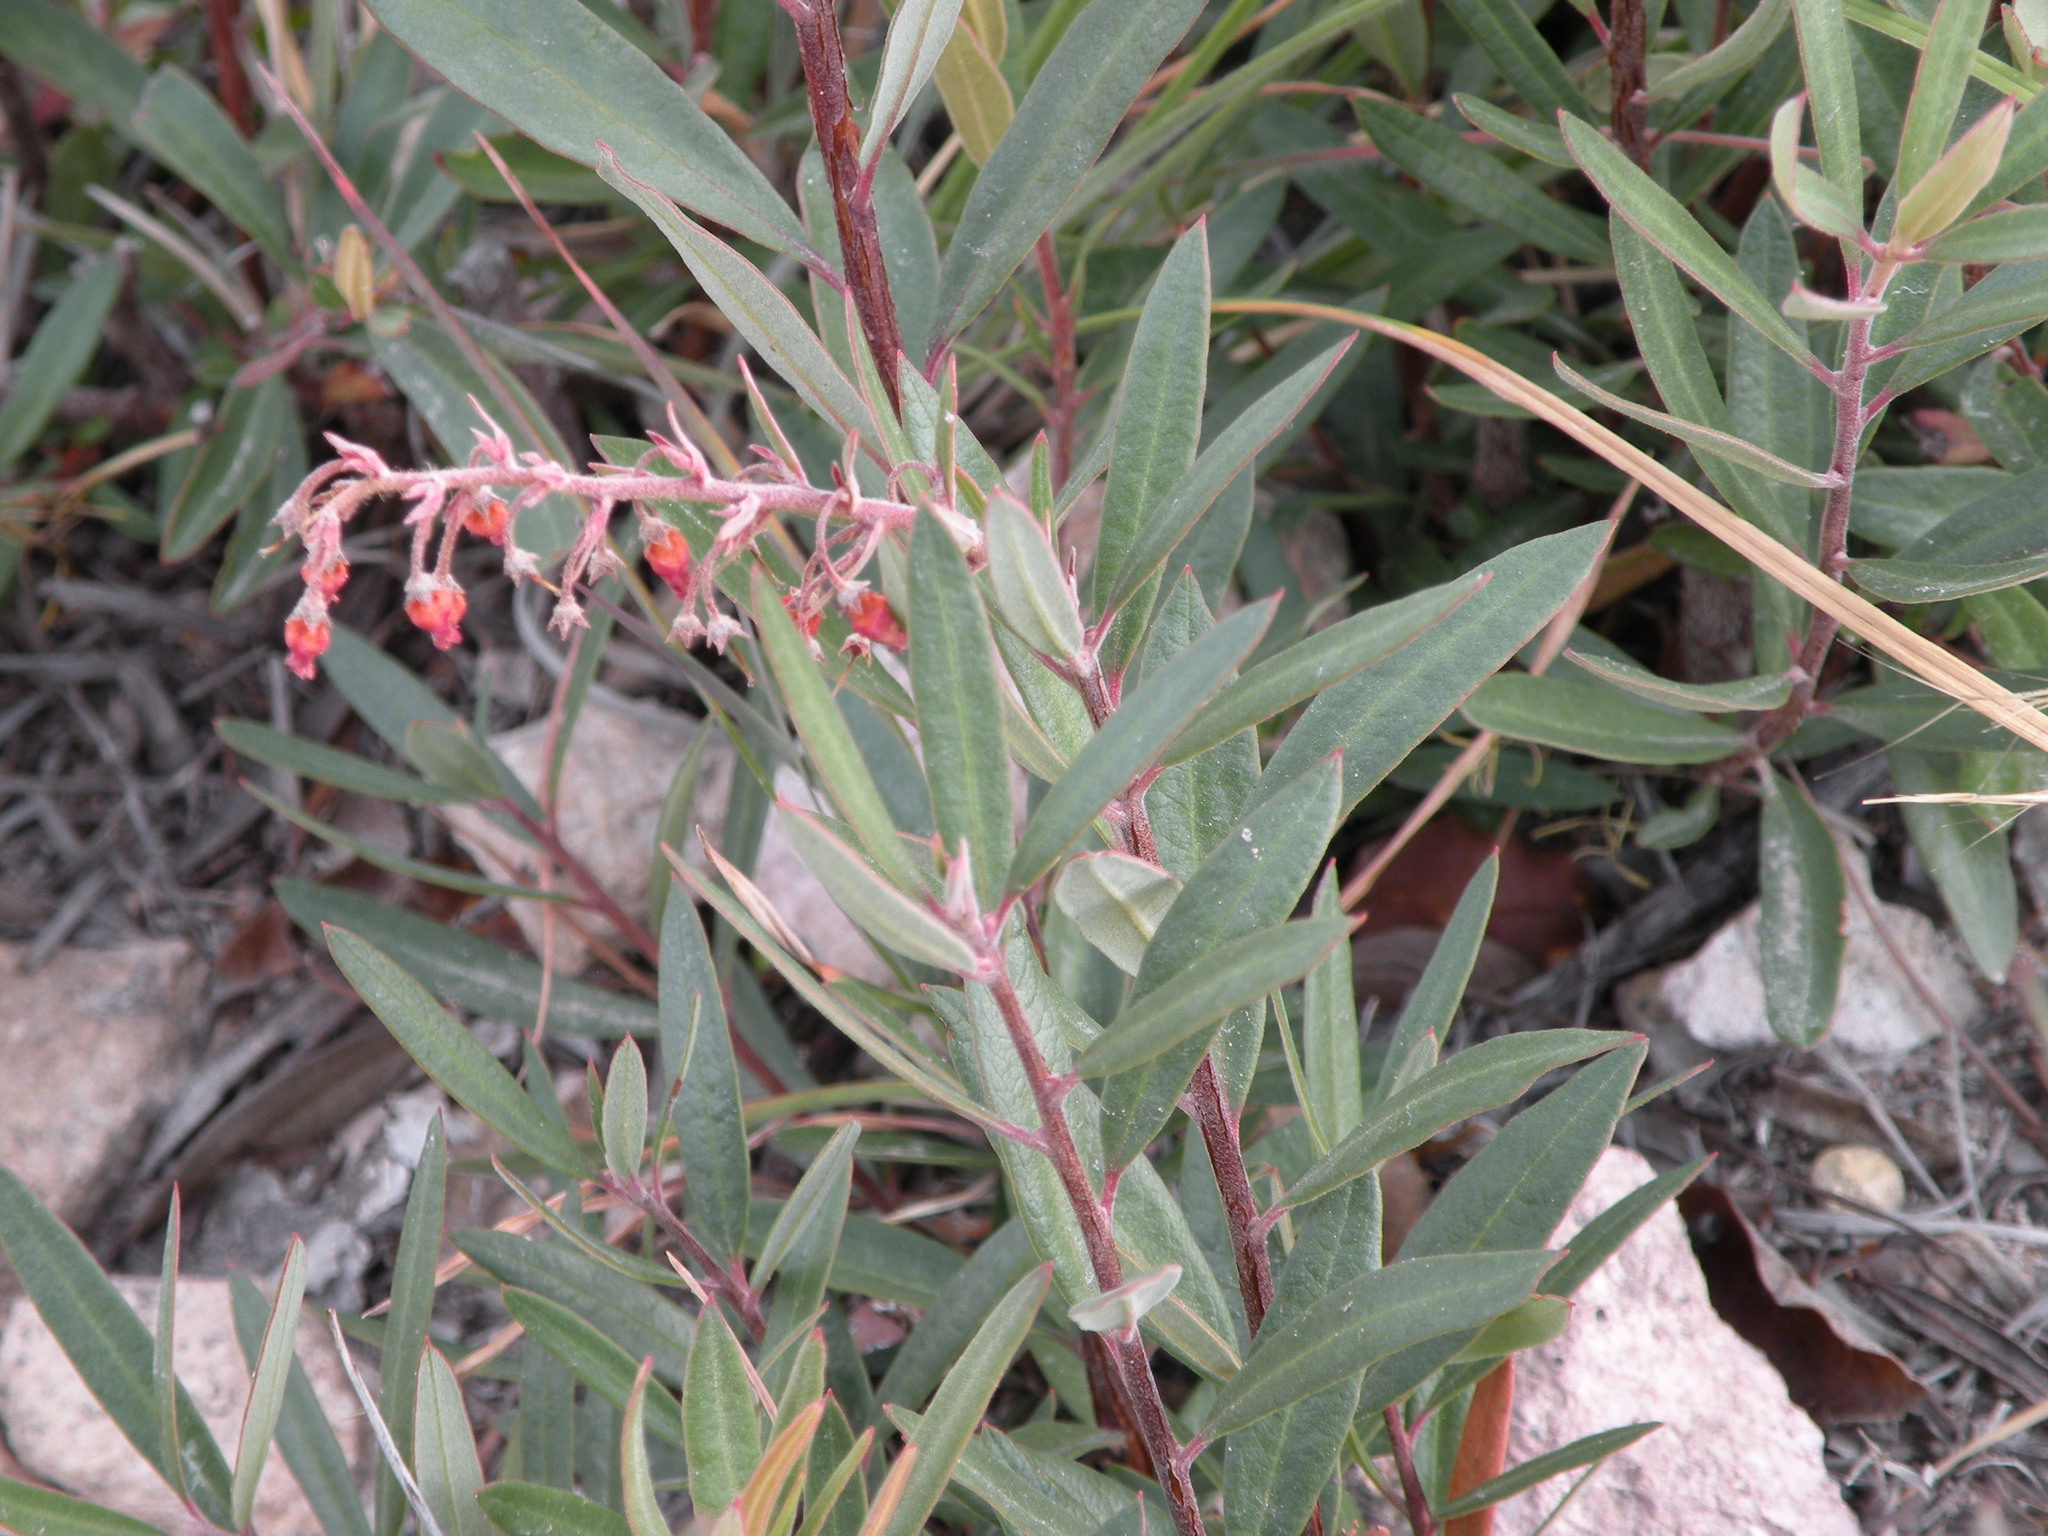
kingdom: Plantae
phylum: Tracheophyta
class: Magnoliopsida
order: Ericales
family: Ericaceae
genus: Comarostaphylis
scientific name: Comarostaphylis polifolia
